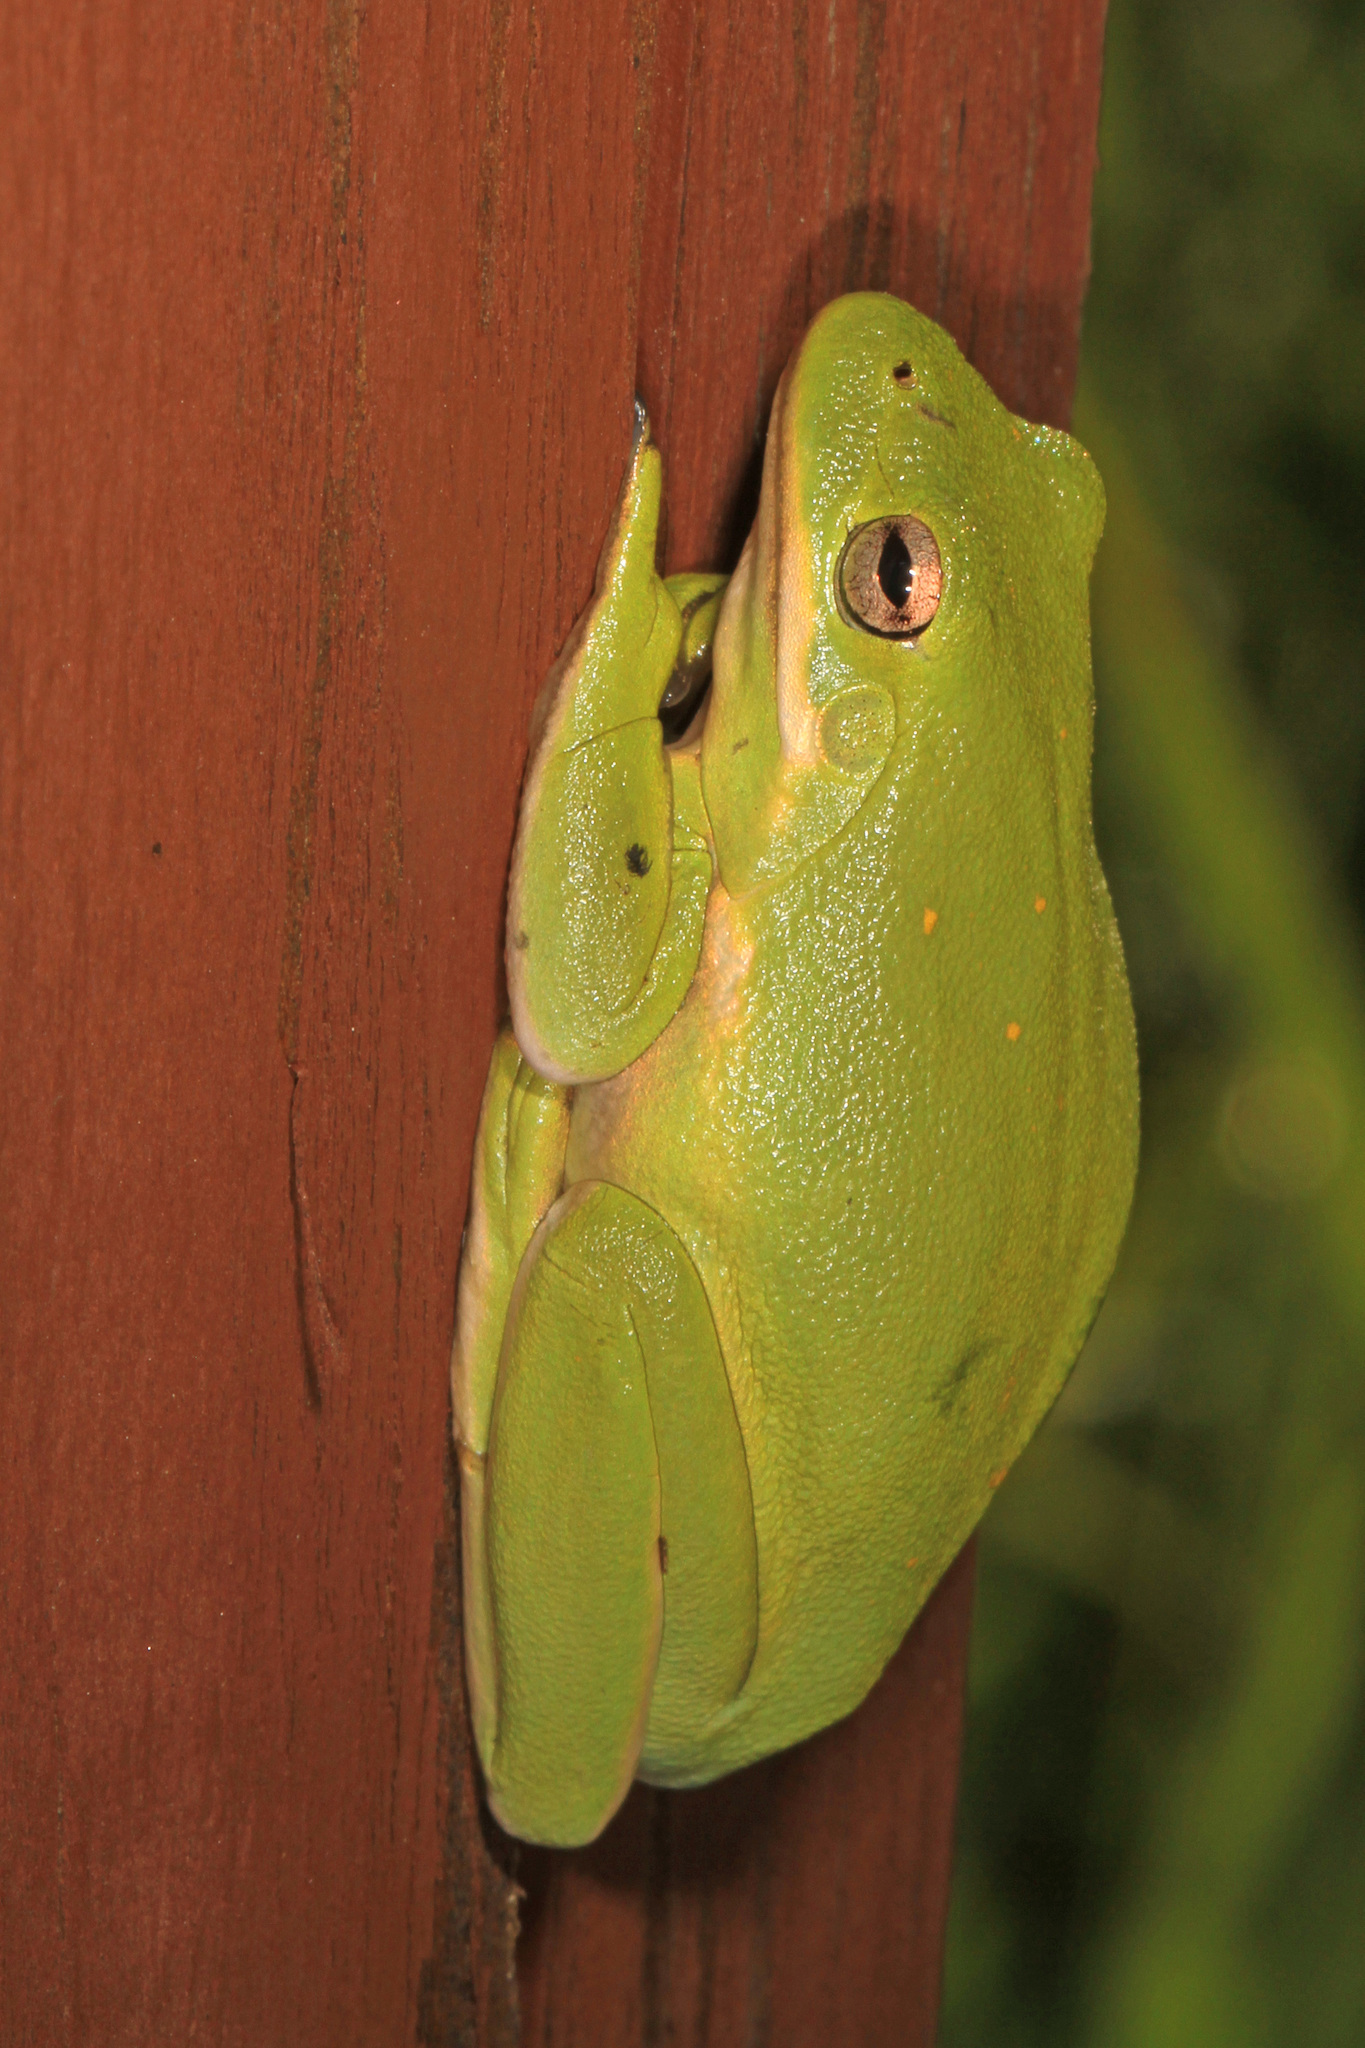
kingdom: Animalia
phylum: Chordata
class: Amphibia
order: Anura
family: Hylidae
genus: Dryophytes
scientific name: Dryophytes cinereus
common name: Green treefrog
